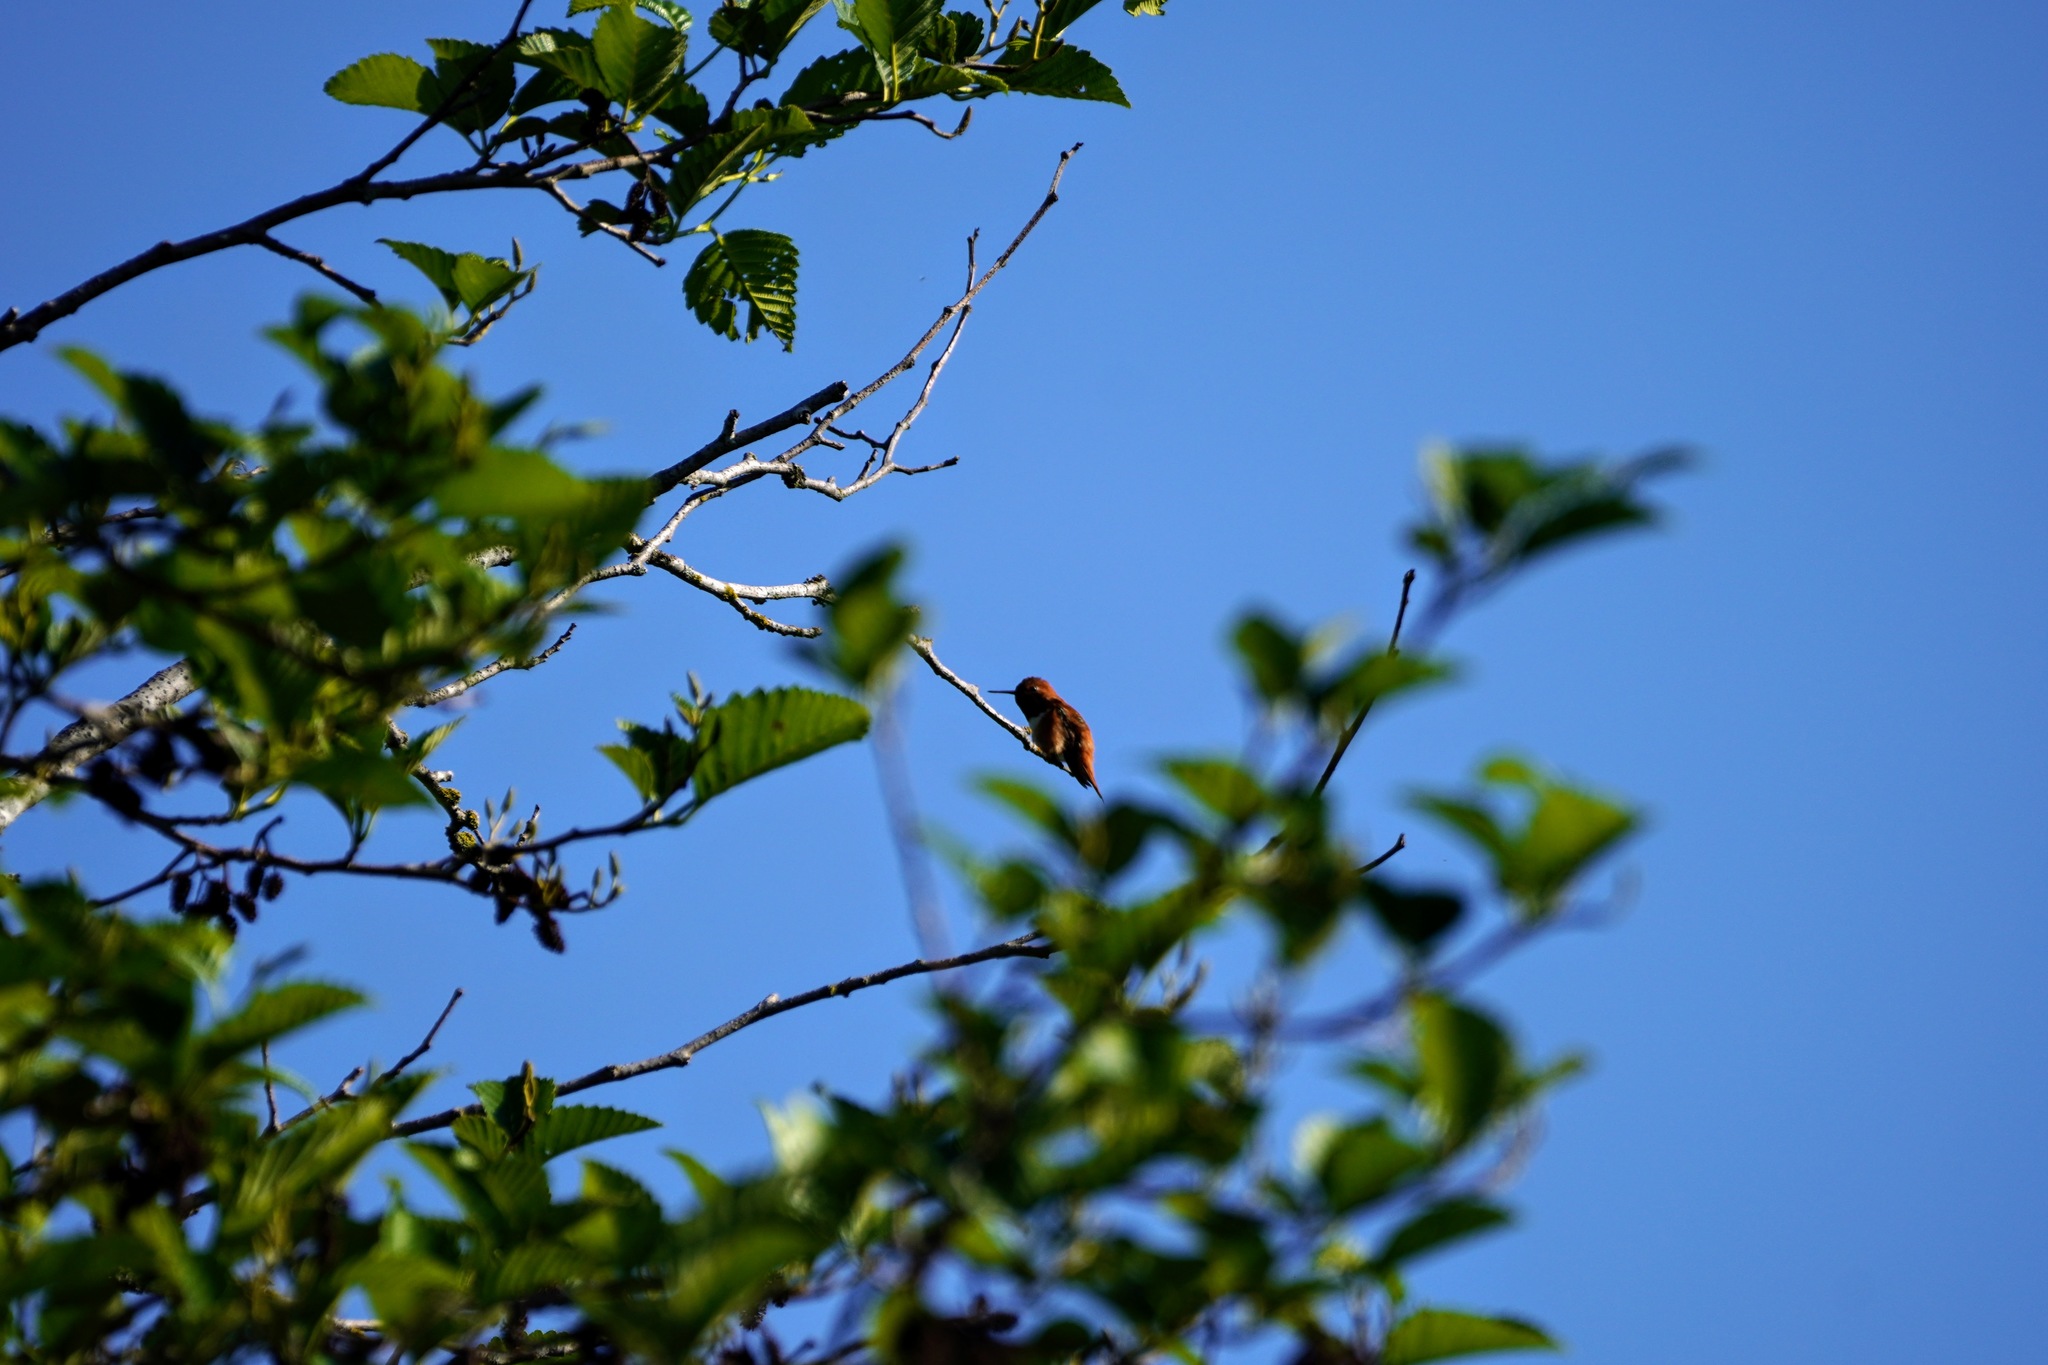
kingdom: Animalia
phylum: Chordata
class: Aves
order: Apodiformes
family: Trochilidae
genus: Selasphorus
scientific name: Selasphorus rufus
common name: Rufous hummingbird
